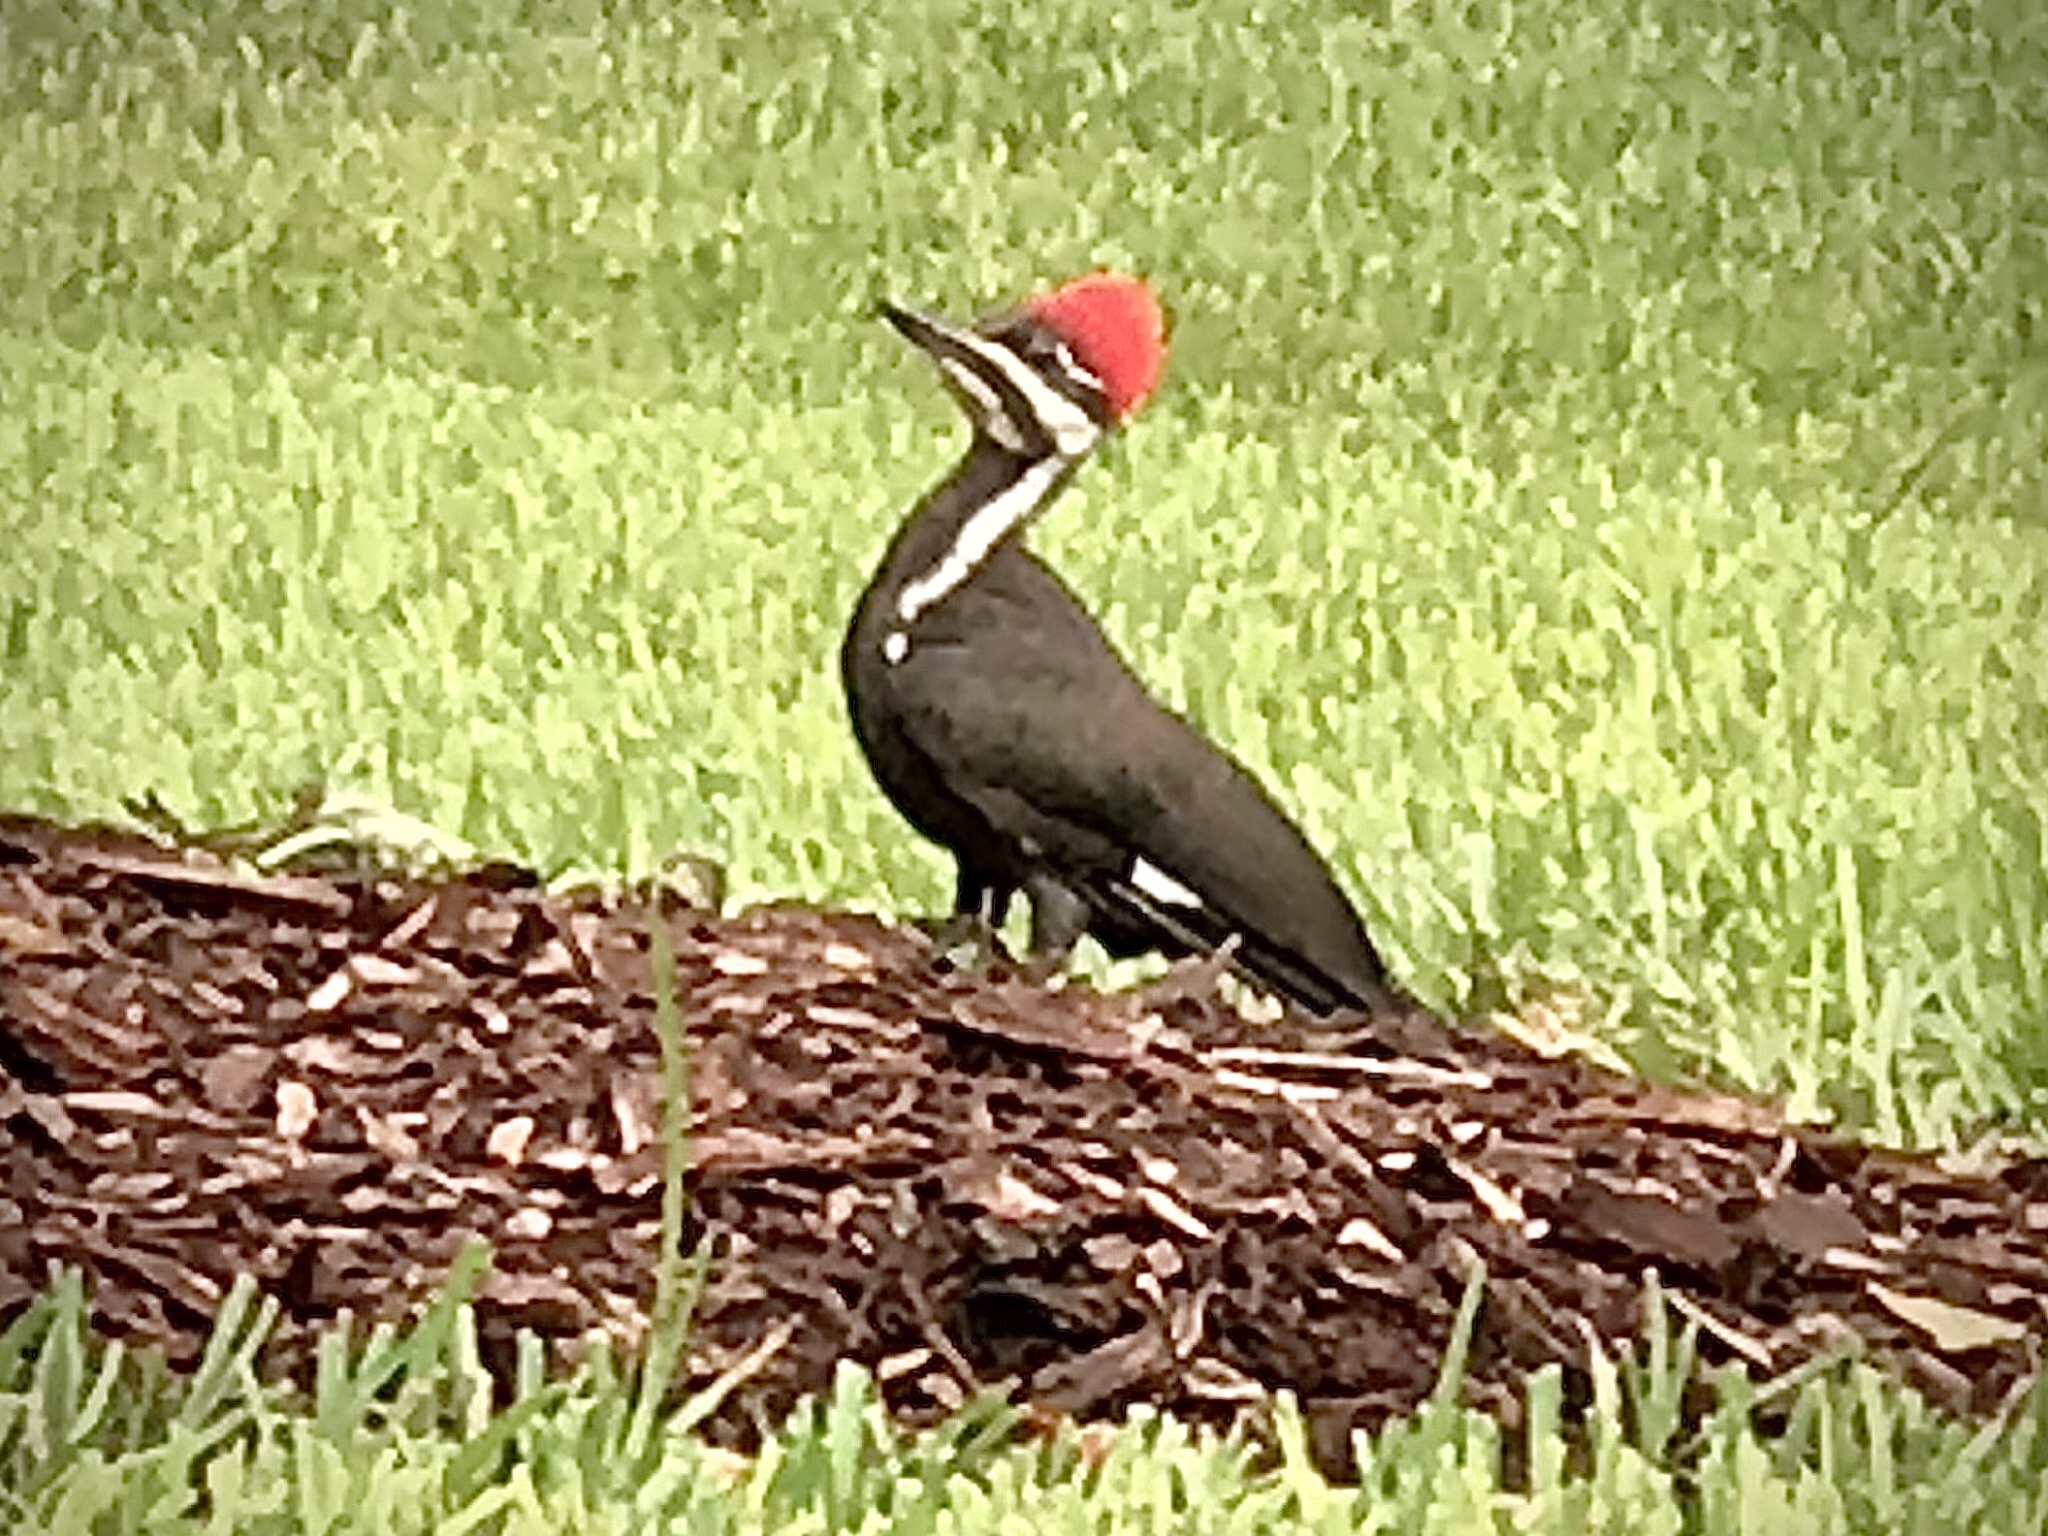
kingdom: Animalia
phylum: Chordata
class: Aves
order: Piciformes
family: Picidae
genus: Dryocopus
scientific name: Dryocopus pileatus
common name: Pileated woodpecker
